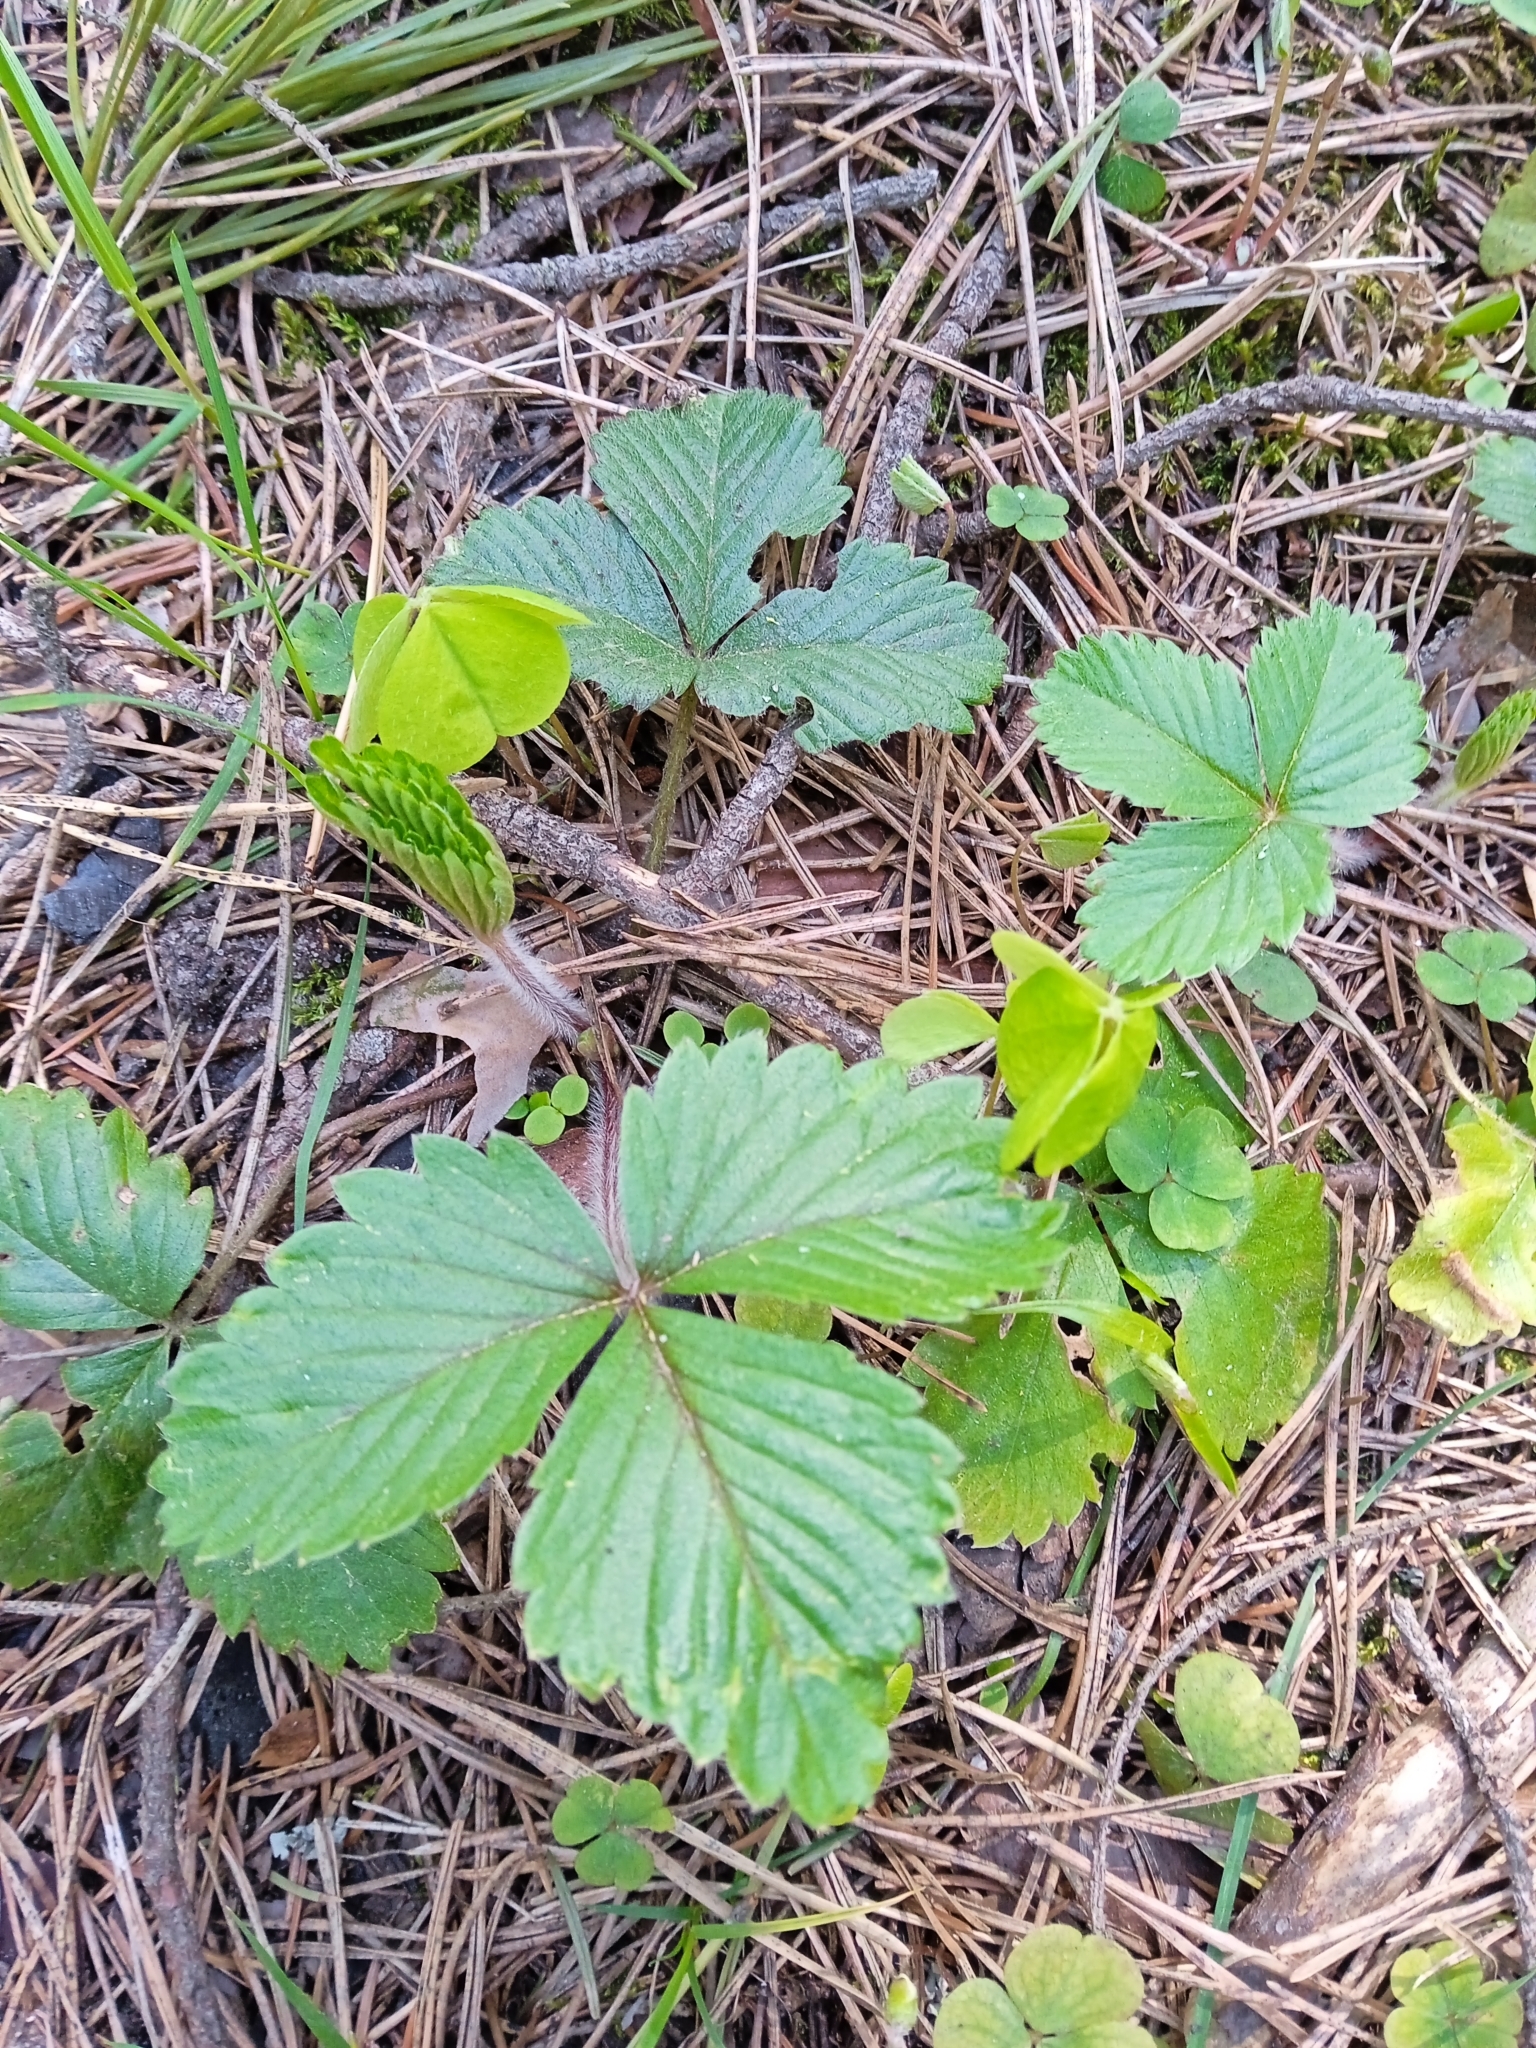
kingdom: Plantae
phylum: Tracheophyta
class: Magnoliopsida
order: Rosales
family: Rosaceae
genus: Fragaria
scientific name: Fragaria vesca
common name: Wild strawberry
